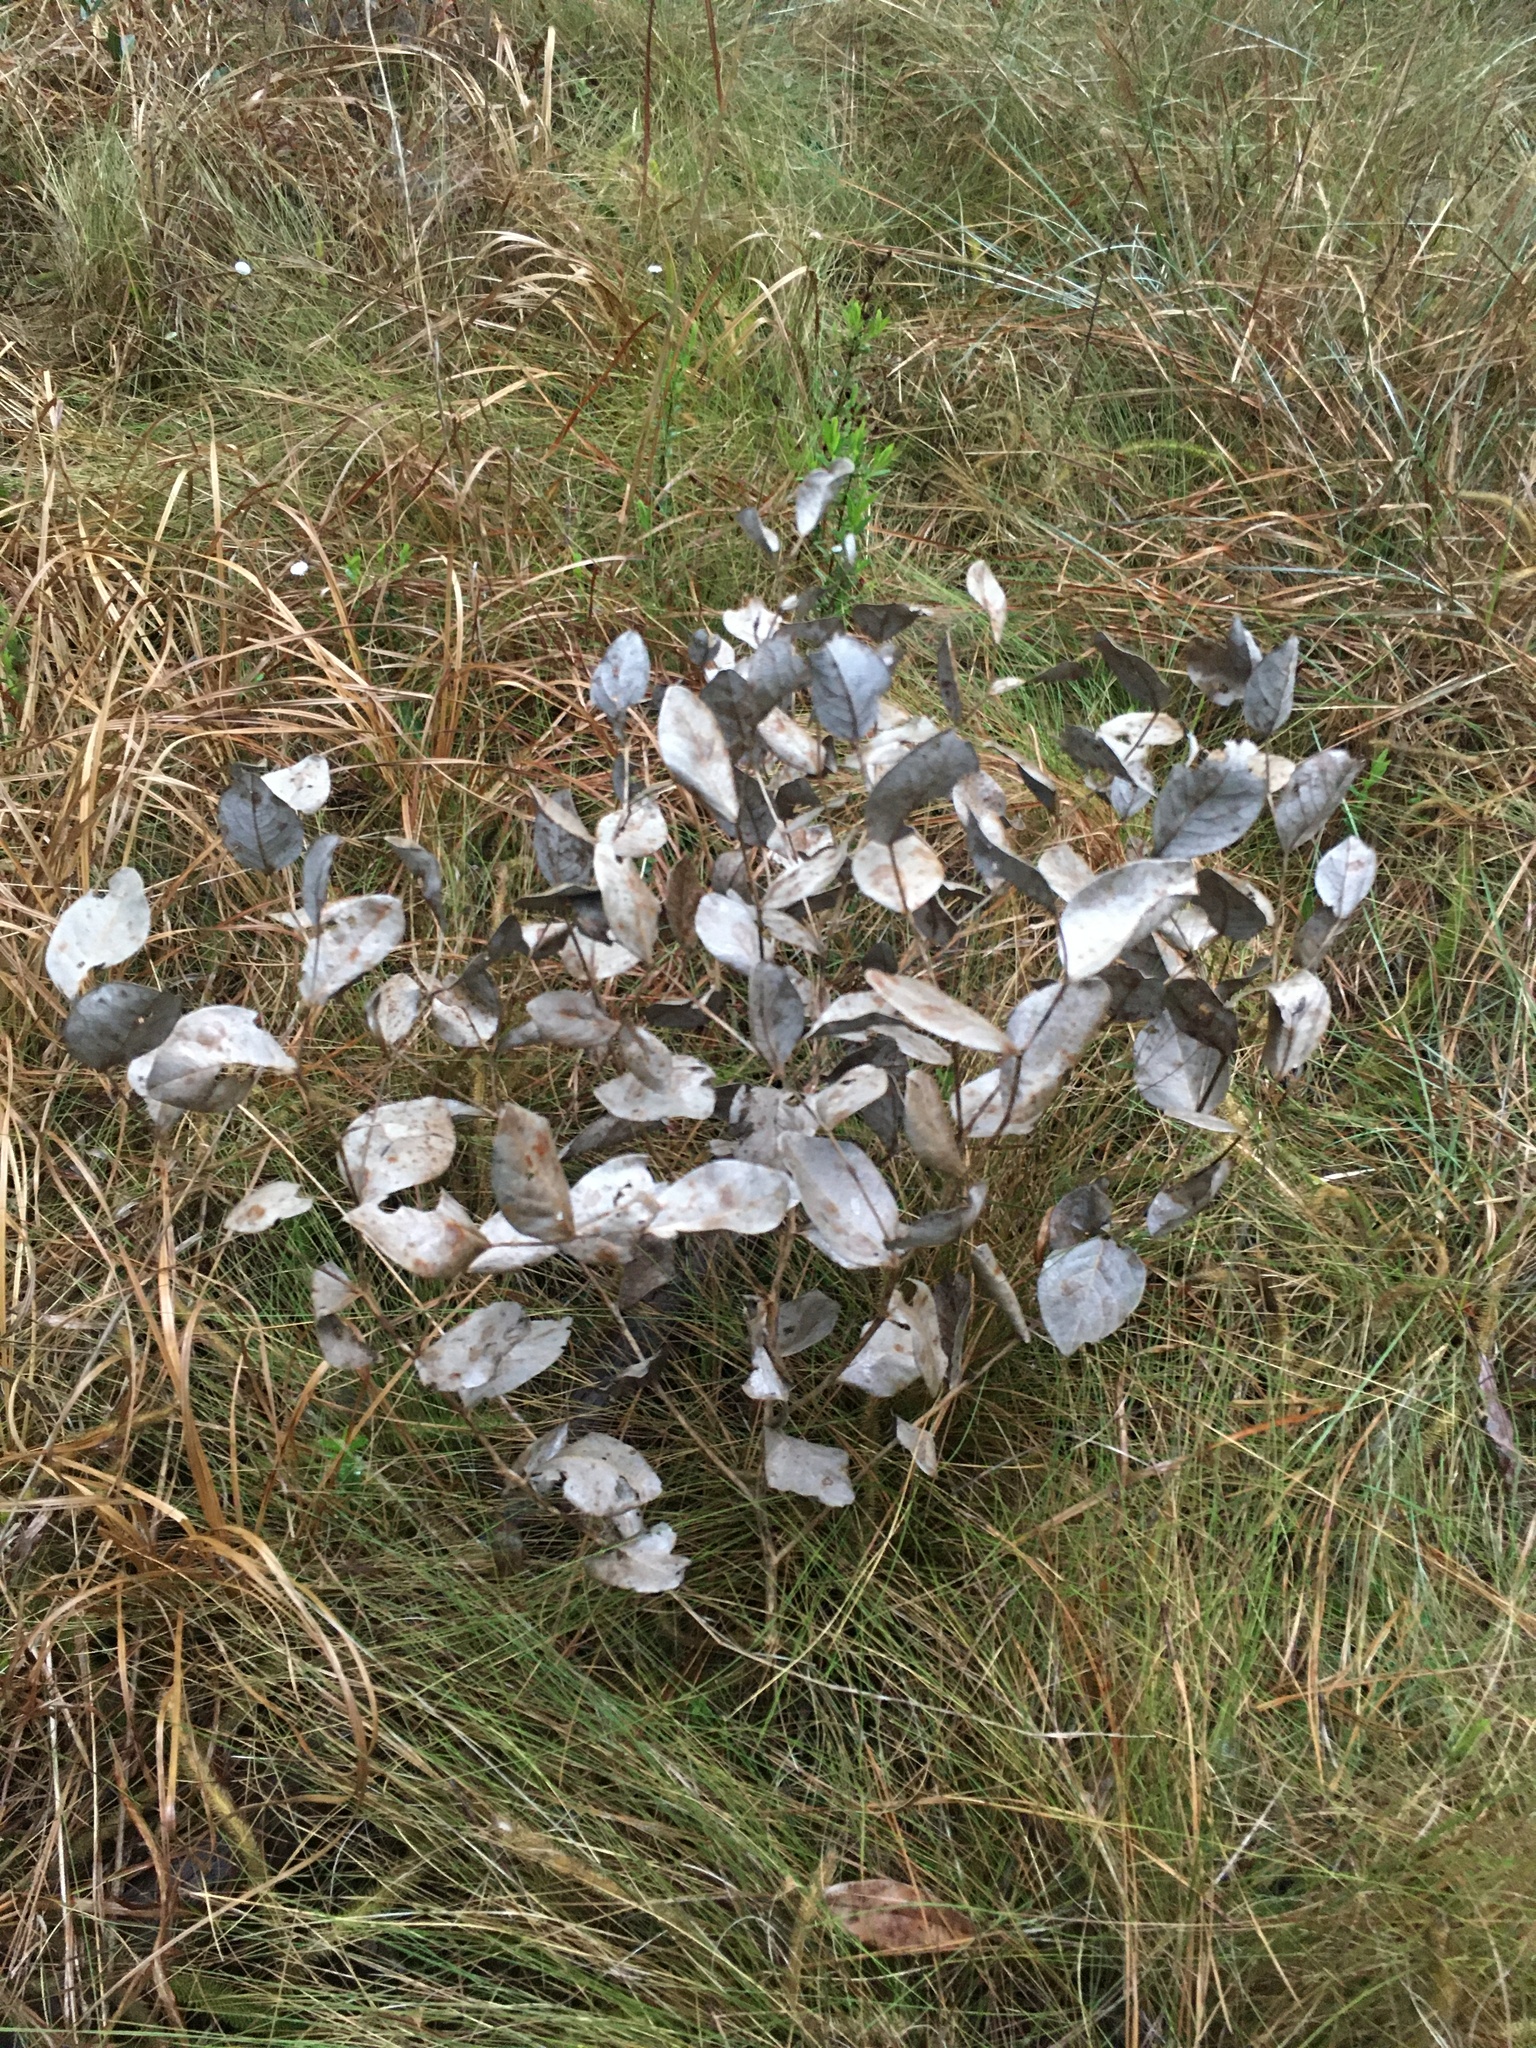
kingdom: Plantae
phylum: Tracheophyta
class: Magnoliopsida
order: Fabales
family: Fabaceae
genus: Baptisia
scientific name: Baptisia simplicifolia
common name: Scareweed
